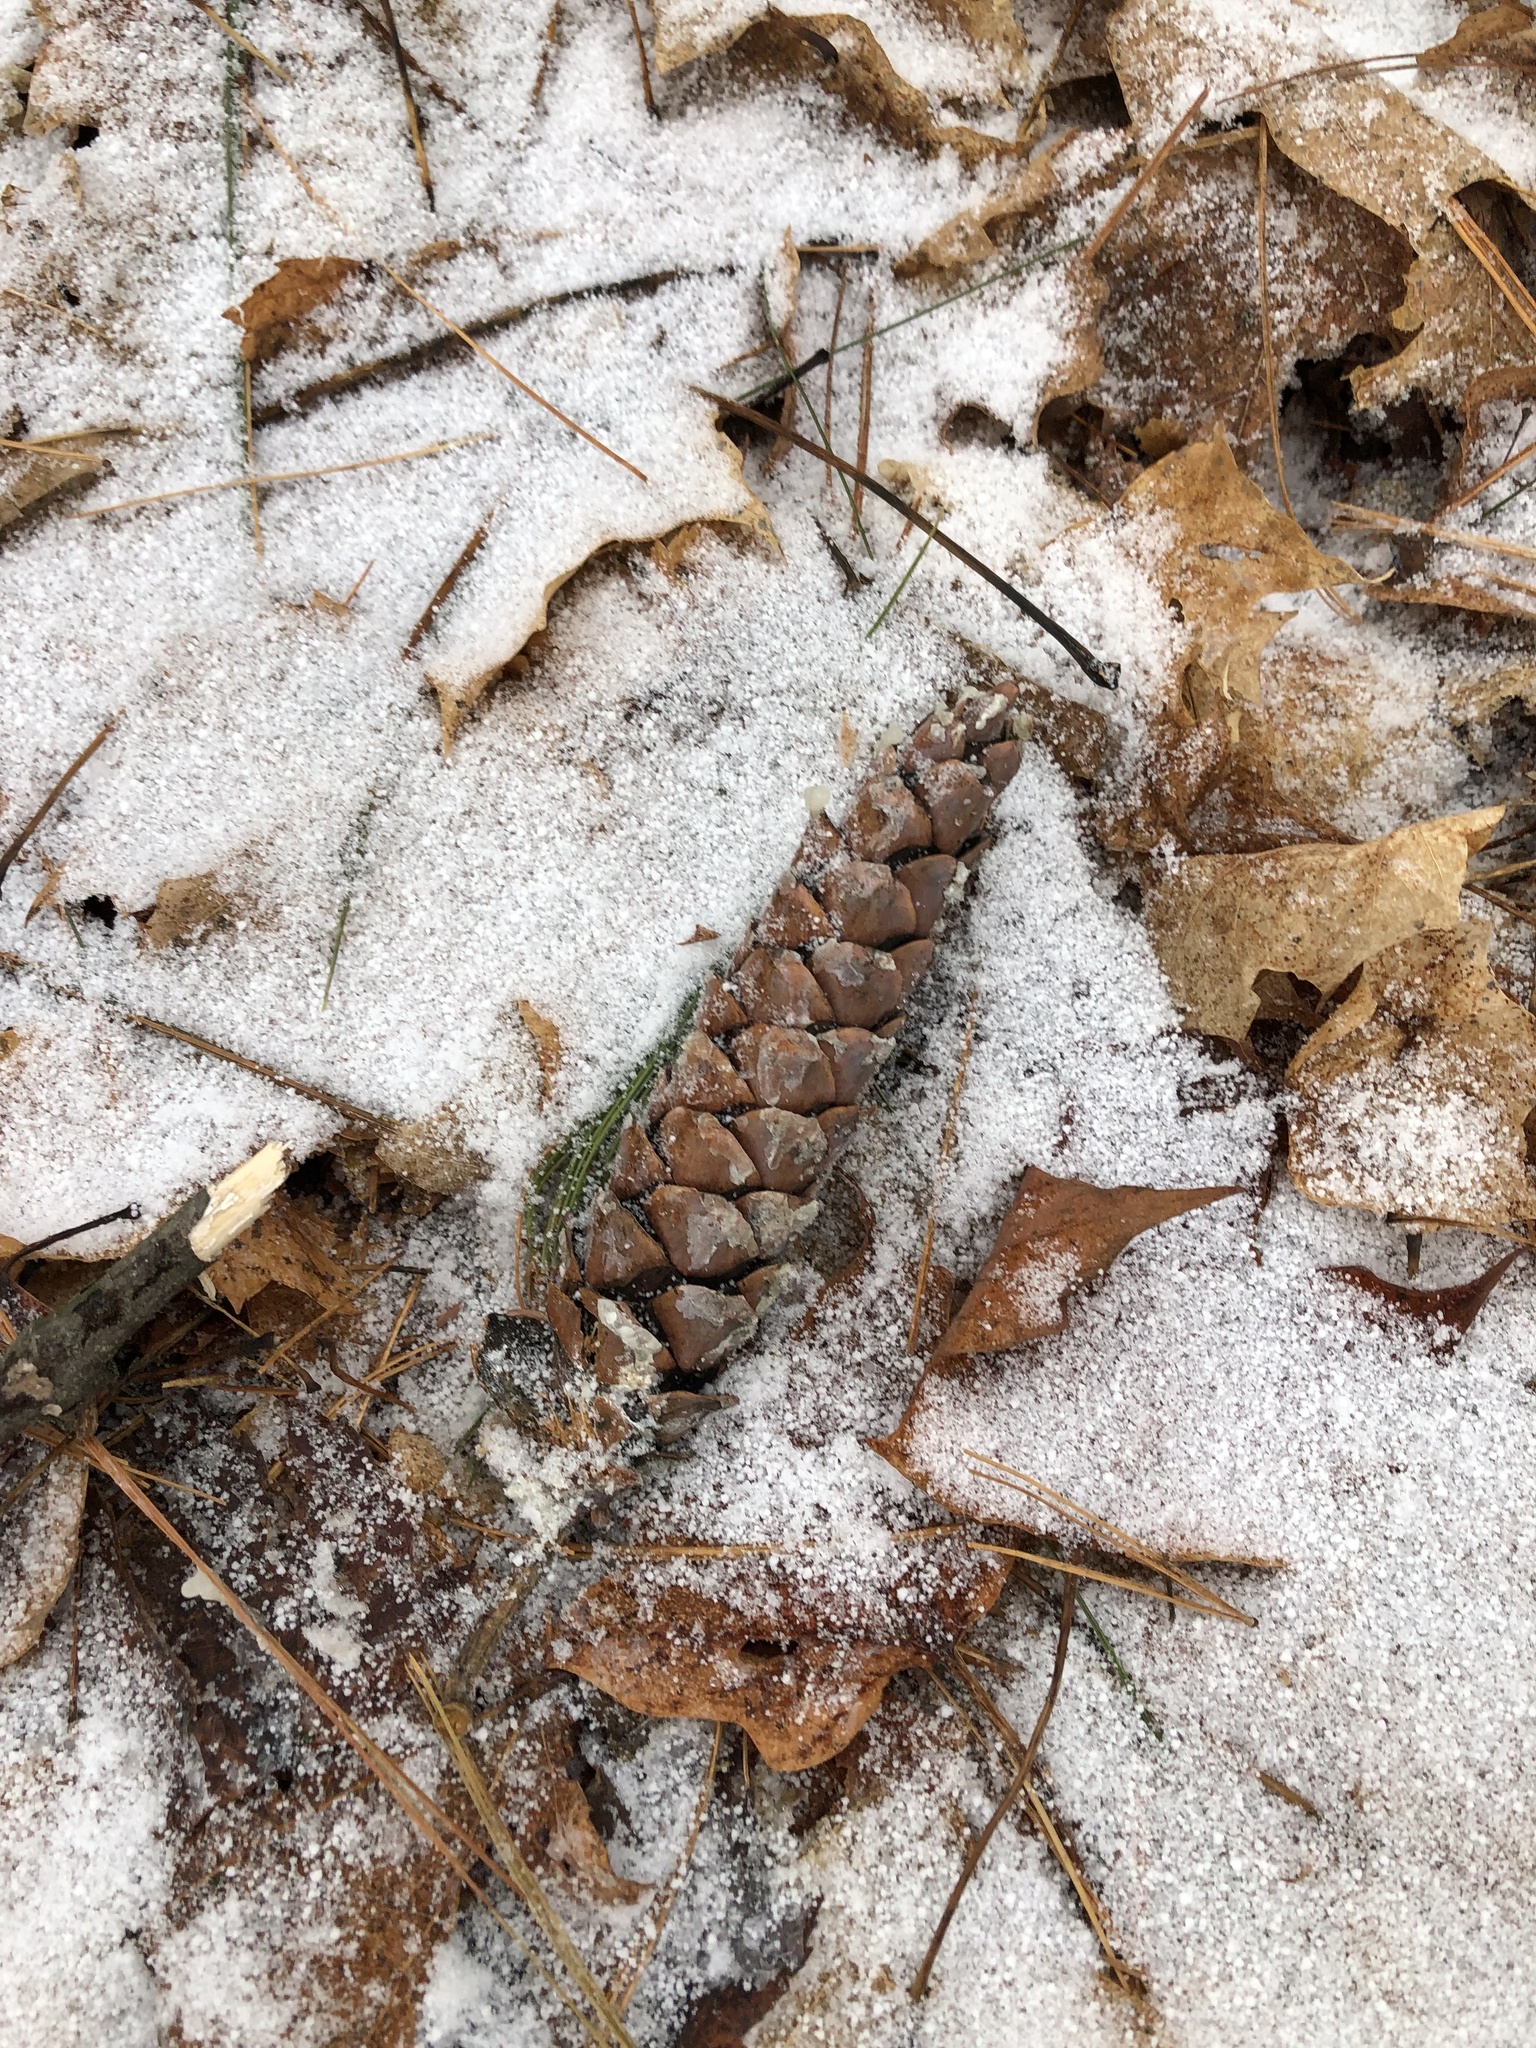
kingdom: Plantae
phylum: Tracheophyta
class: Pinopsida
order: Pinales
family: Pinaceae
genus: Pinus
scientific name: Pinus strobus
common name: Weymouth pine
